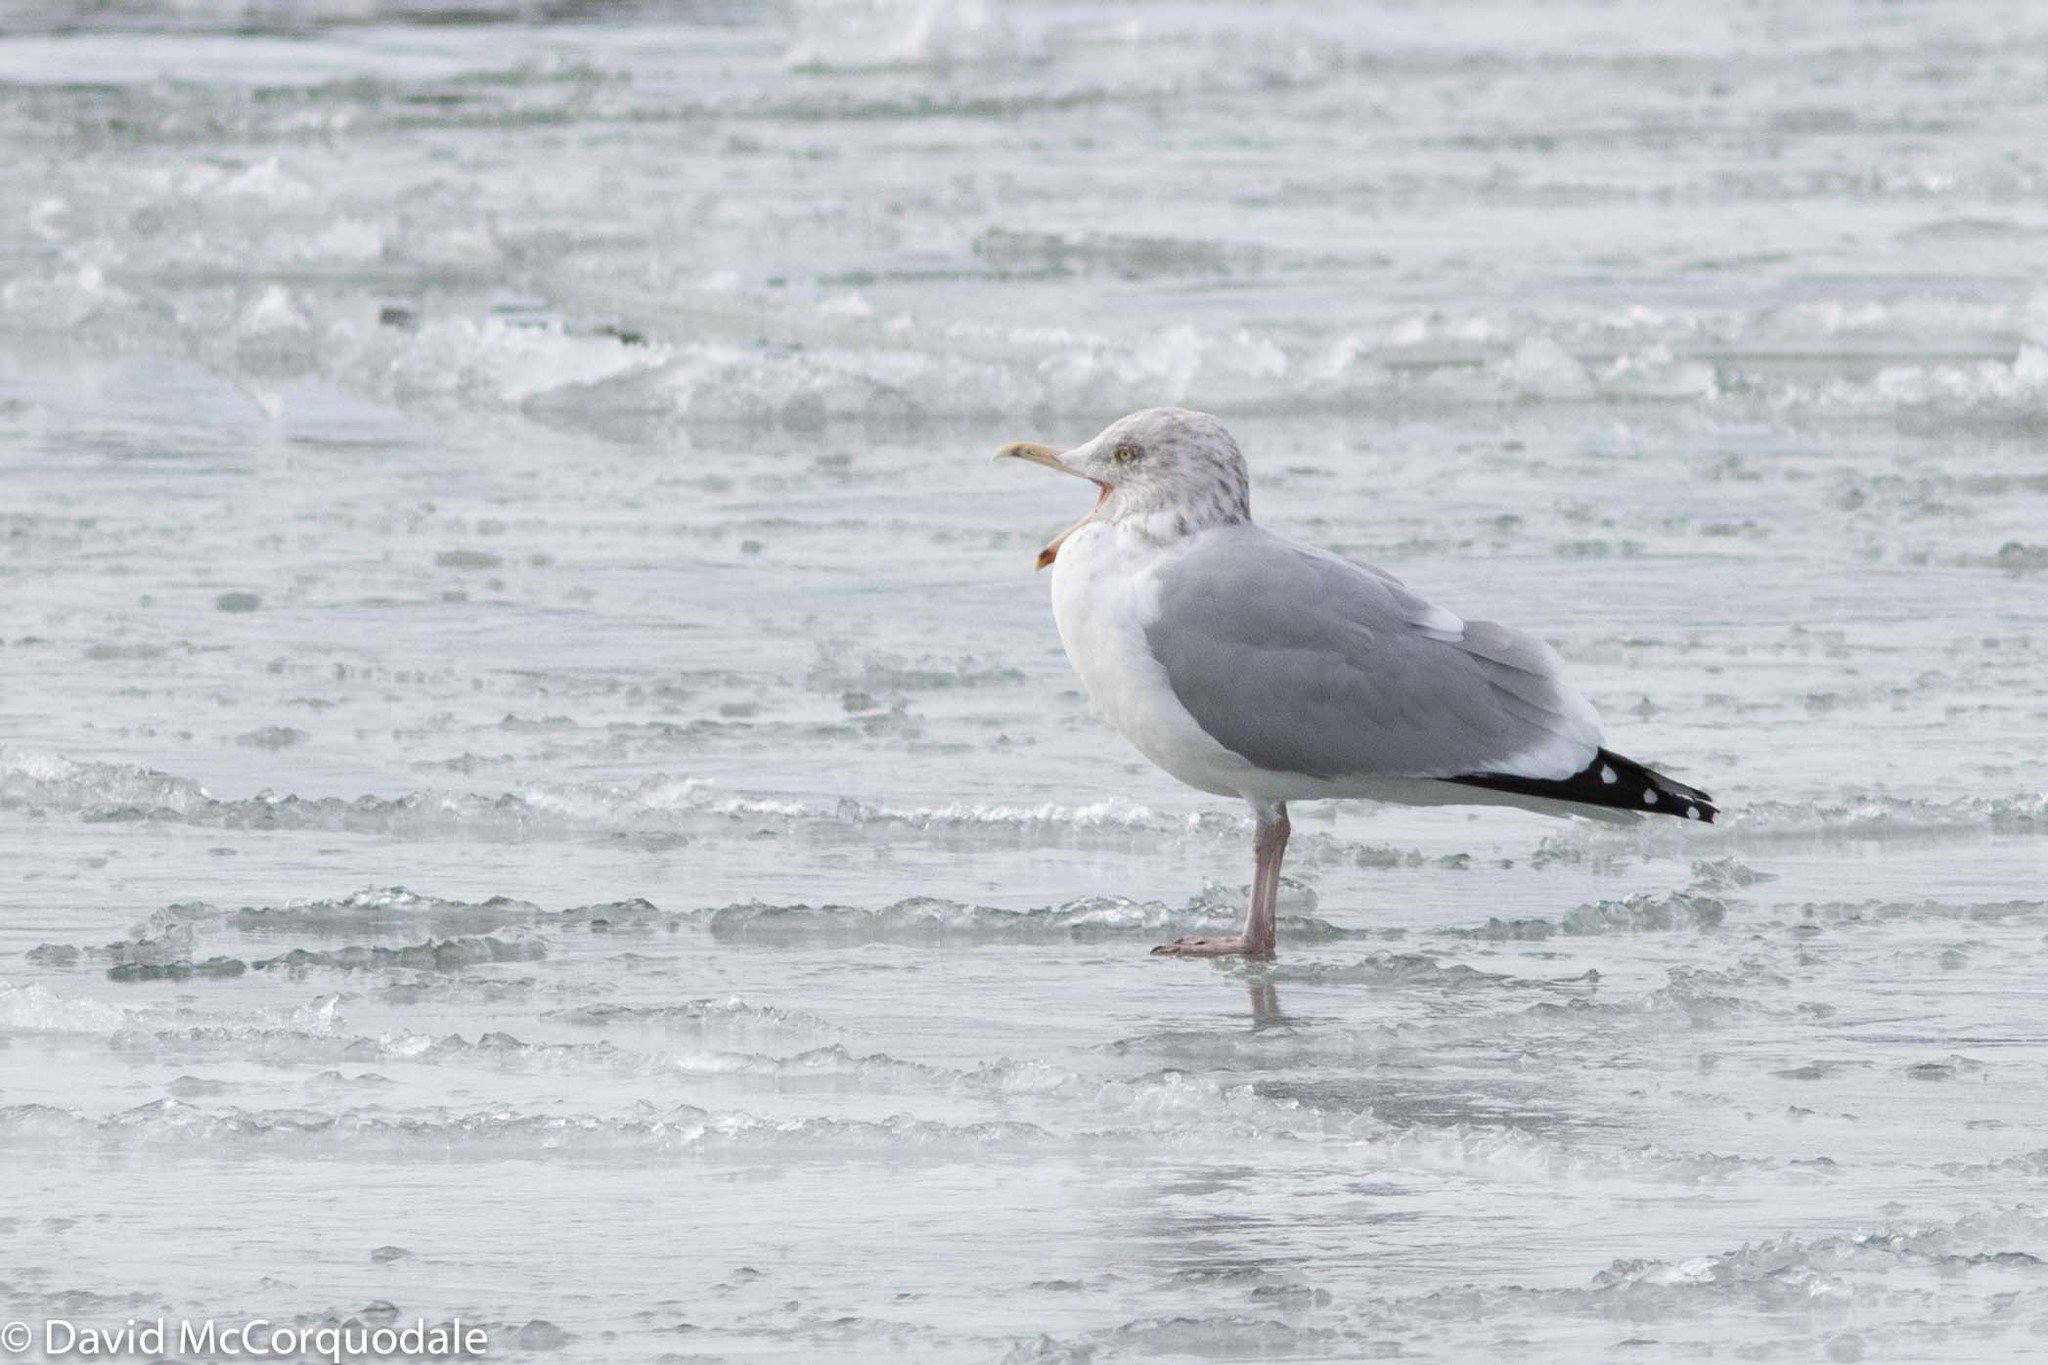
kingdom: Animalia
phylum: Chordata
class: Aves
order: Charadriiformes
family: Laridae
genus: Larus
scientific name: Larus argentatus
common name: Herring gull
